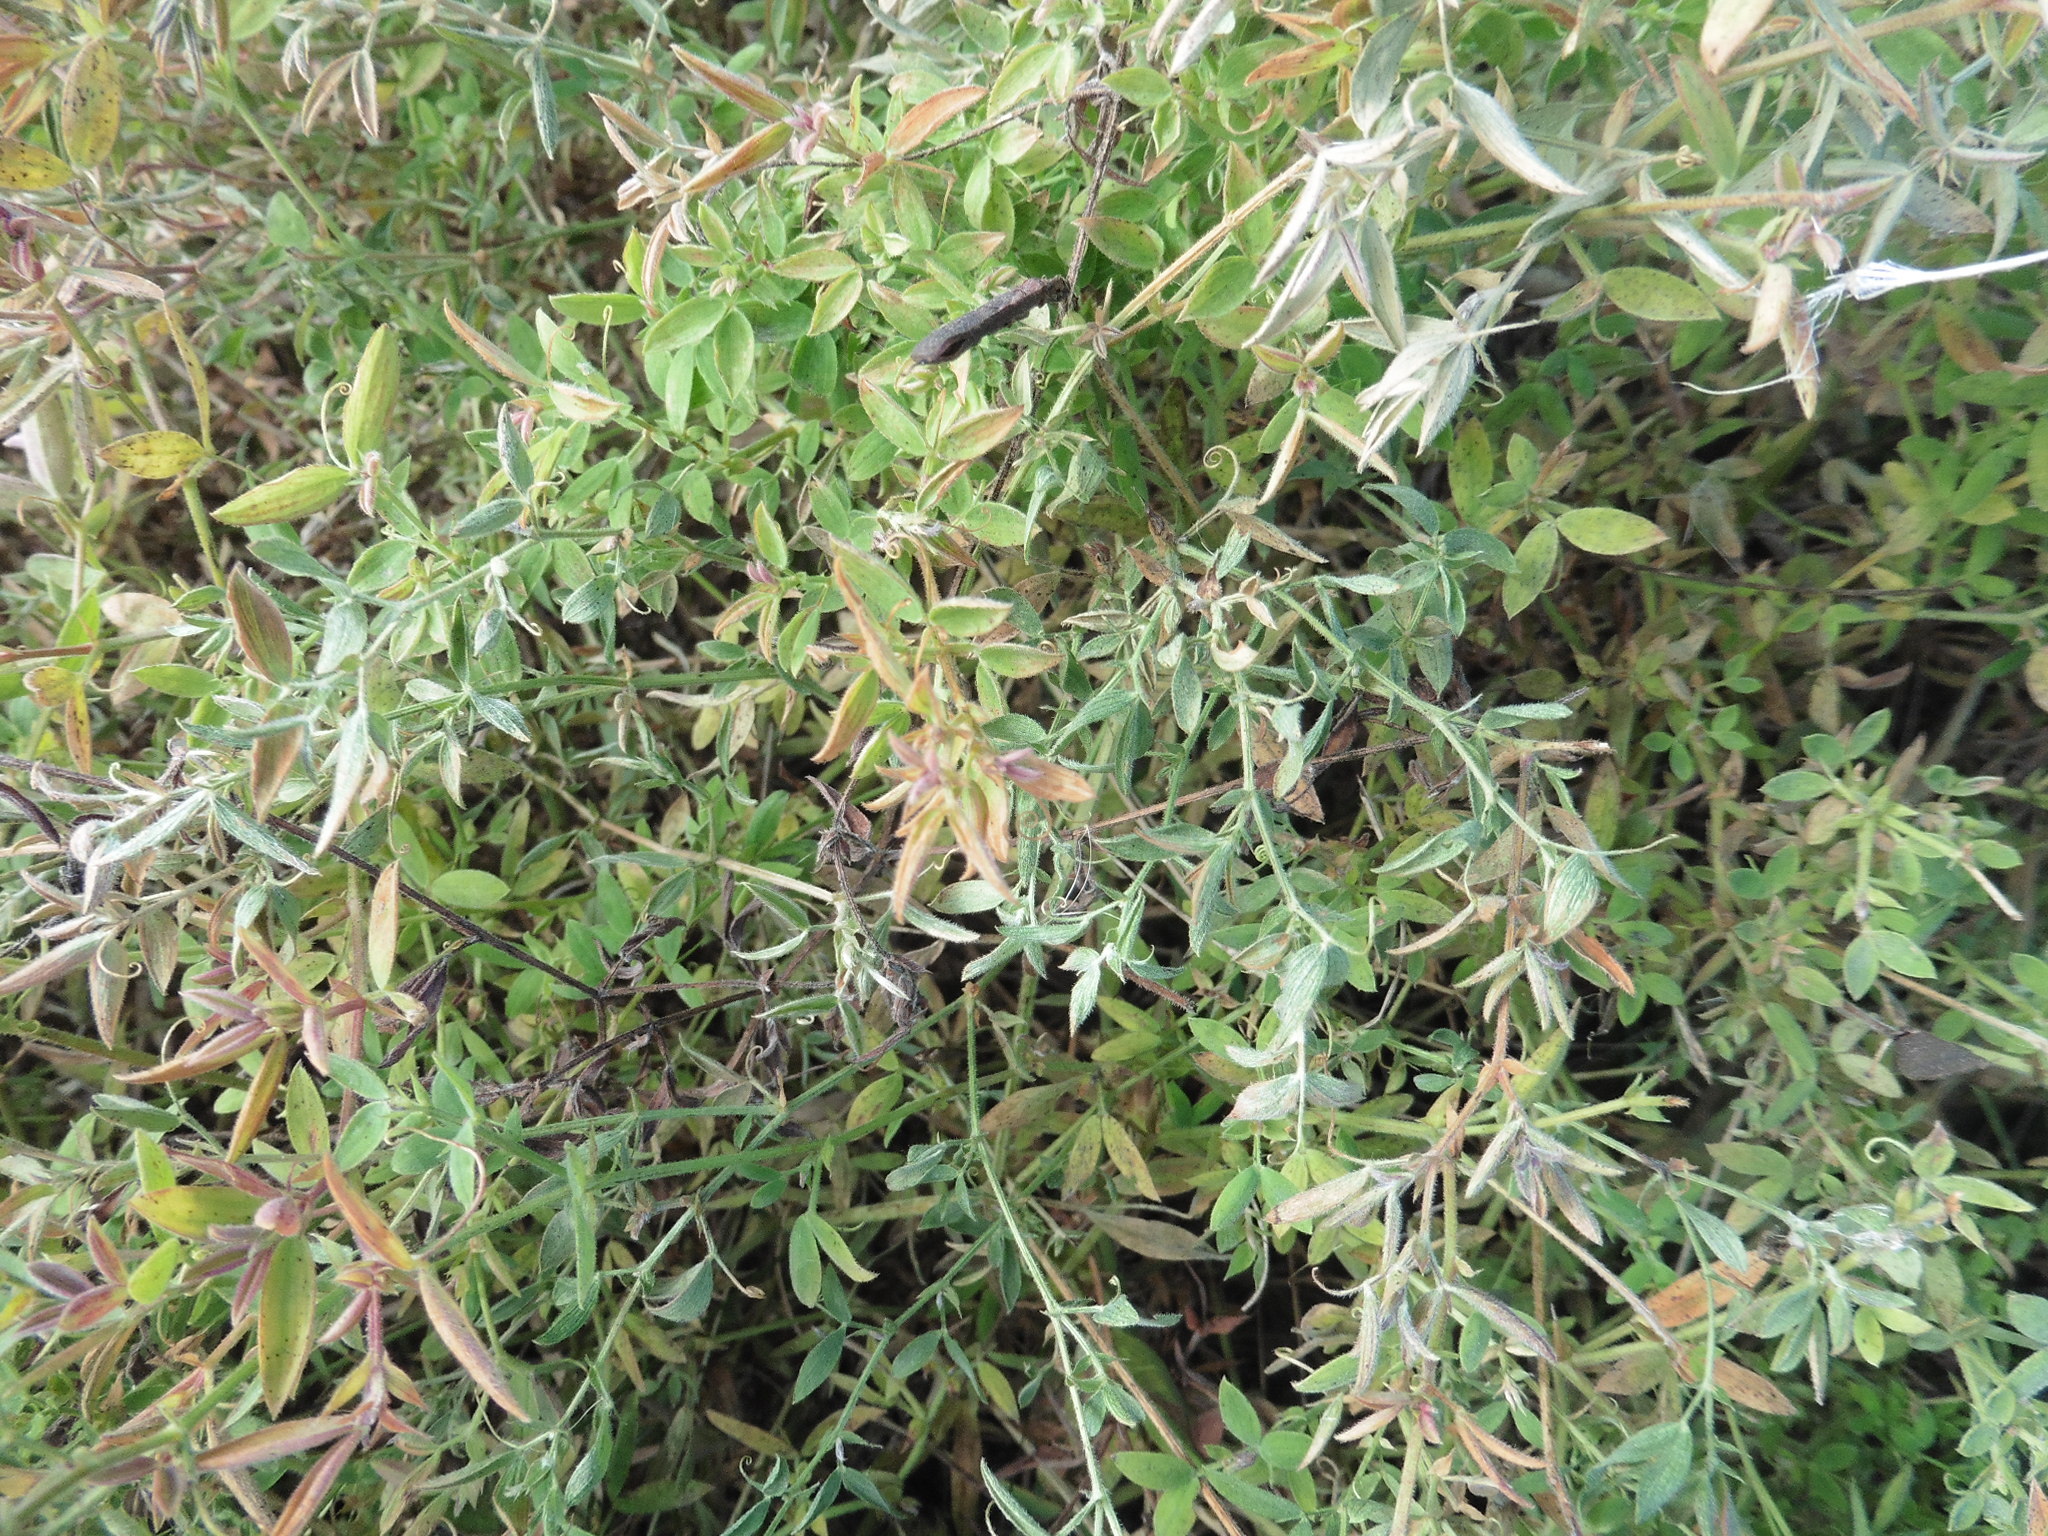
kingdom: Plantae
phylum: Tracheophyta
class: Magnoliopsida
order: Fabales
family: Fabaceae
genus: Lathyrus
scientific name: Lathyrus pratensis
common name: Meadow vetchling
